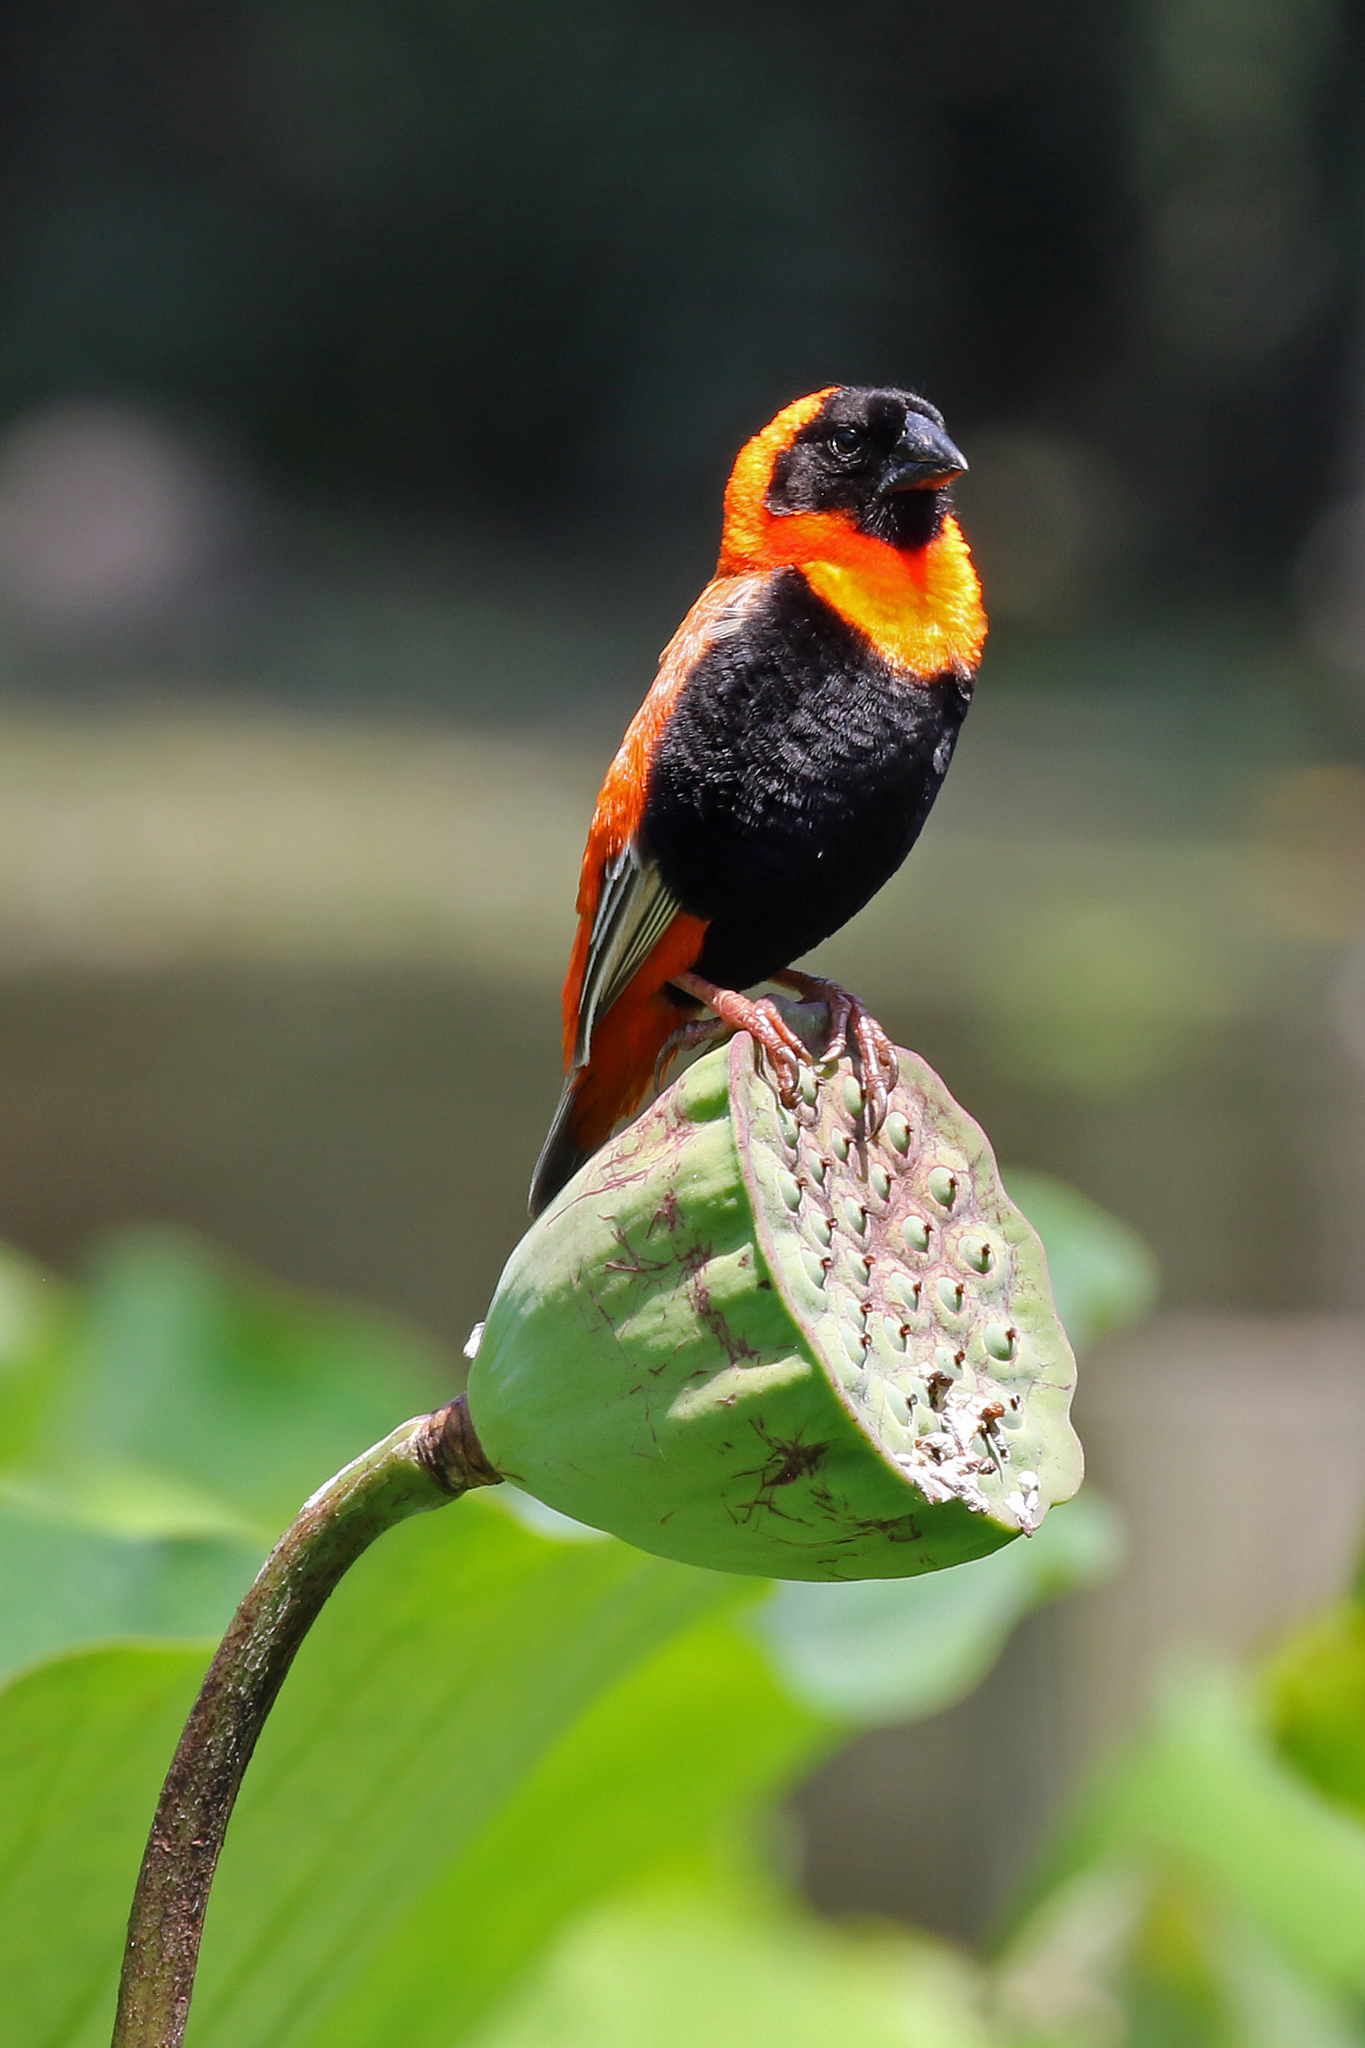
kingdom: Animalia
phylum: Chordata
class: Aves
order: Passeriformes
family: Ploceidae
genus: Euplectes
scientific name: Euplectes orix
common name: Southern red bishop
